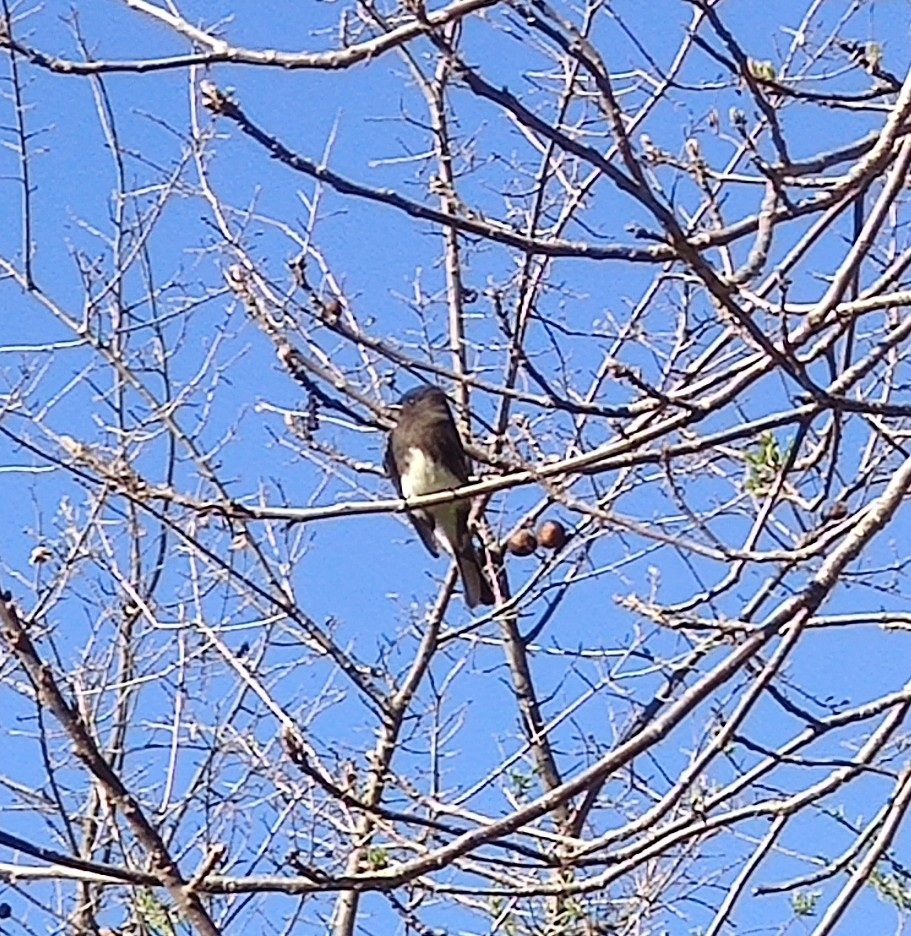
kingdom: Animalia
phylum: Chordata
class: Aves
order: Passeriformes
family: Tyrannidae
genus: Sayornis
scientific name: Sayornis nigricans
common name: Black phoebe
